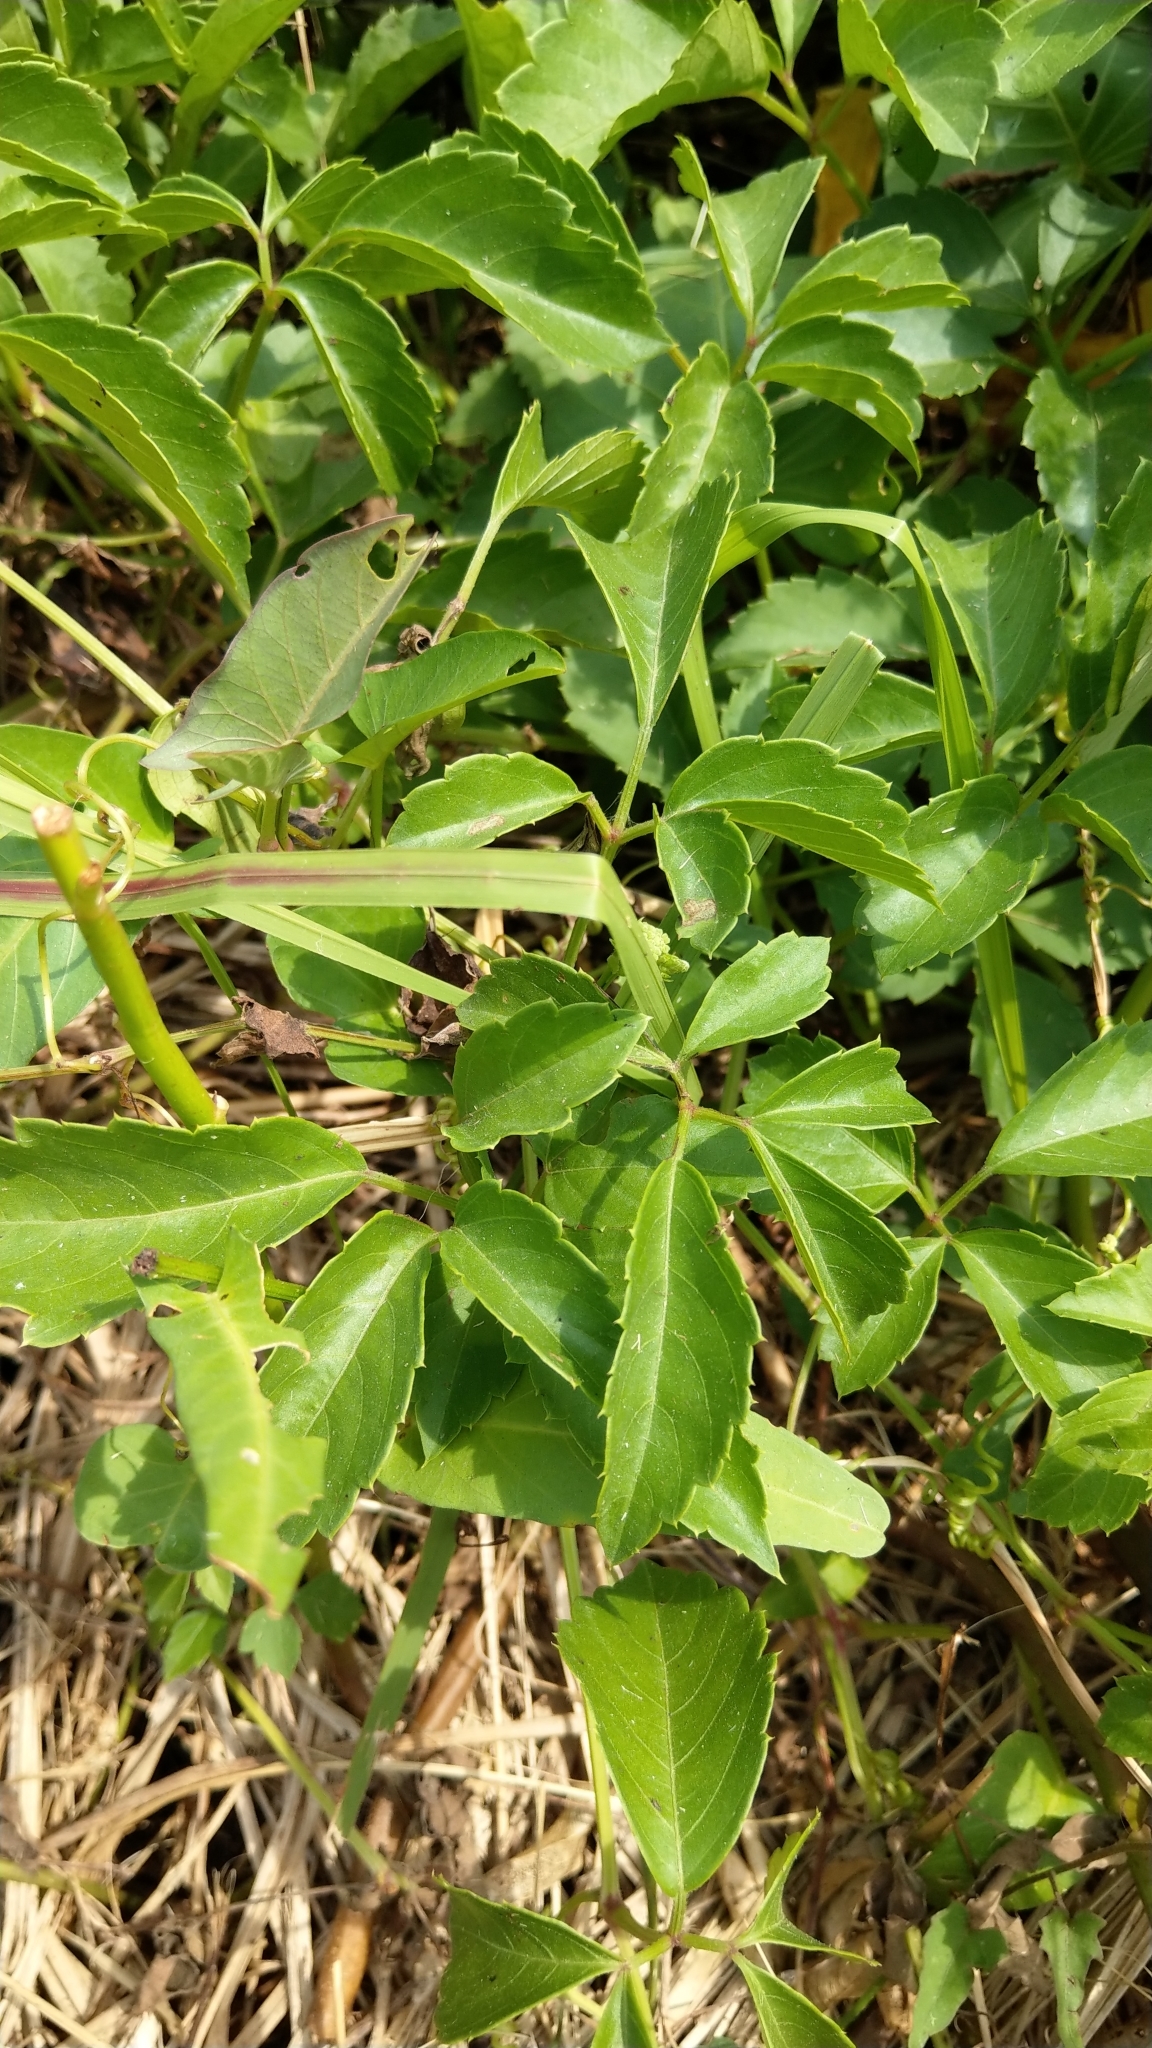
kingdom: Plantae
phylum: Tracheophyta
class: Magnoliopsida
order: Vitales
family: Vitaceae
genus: Causonis
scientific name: Causonis japonica
